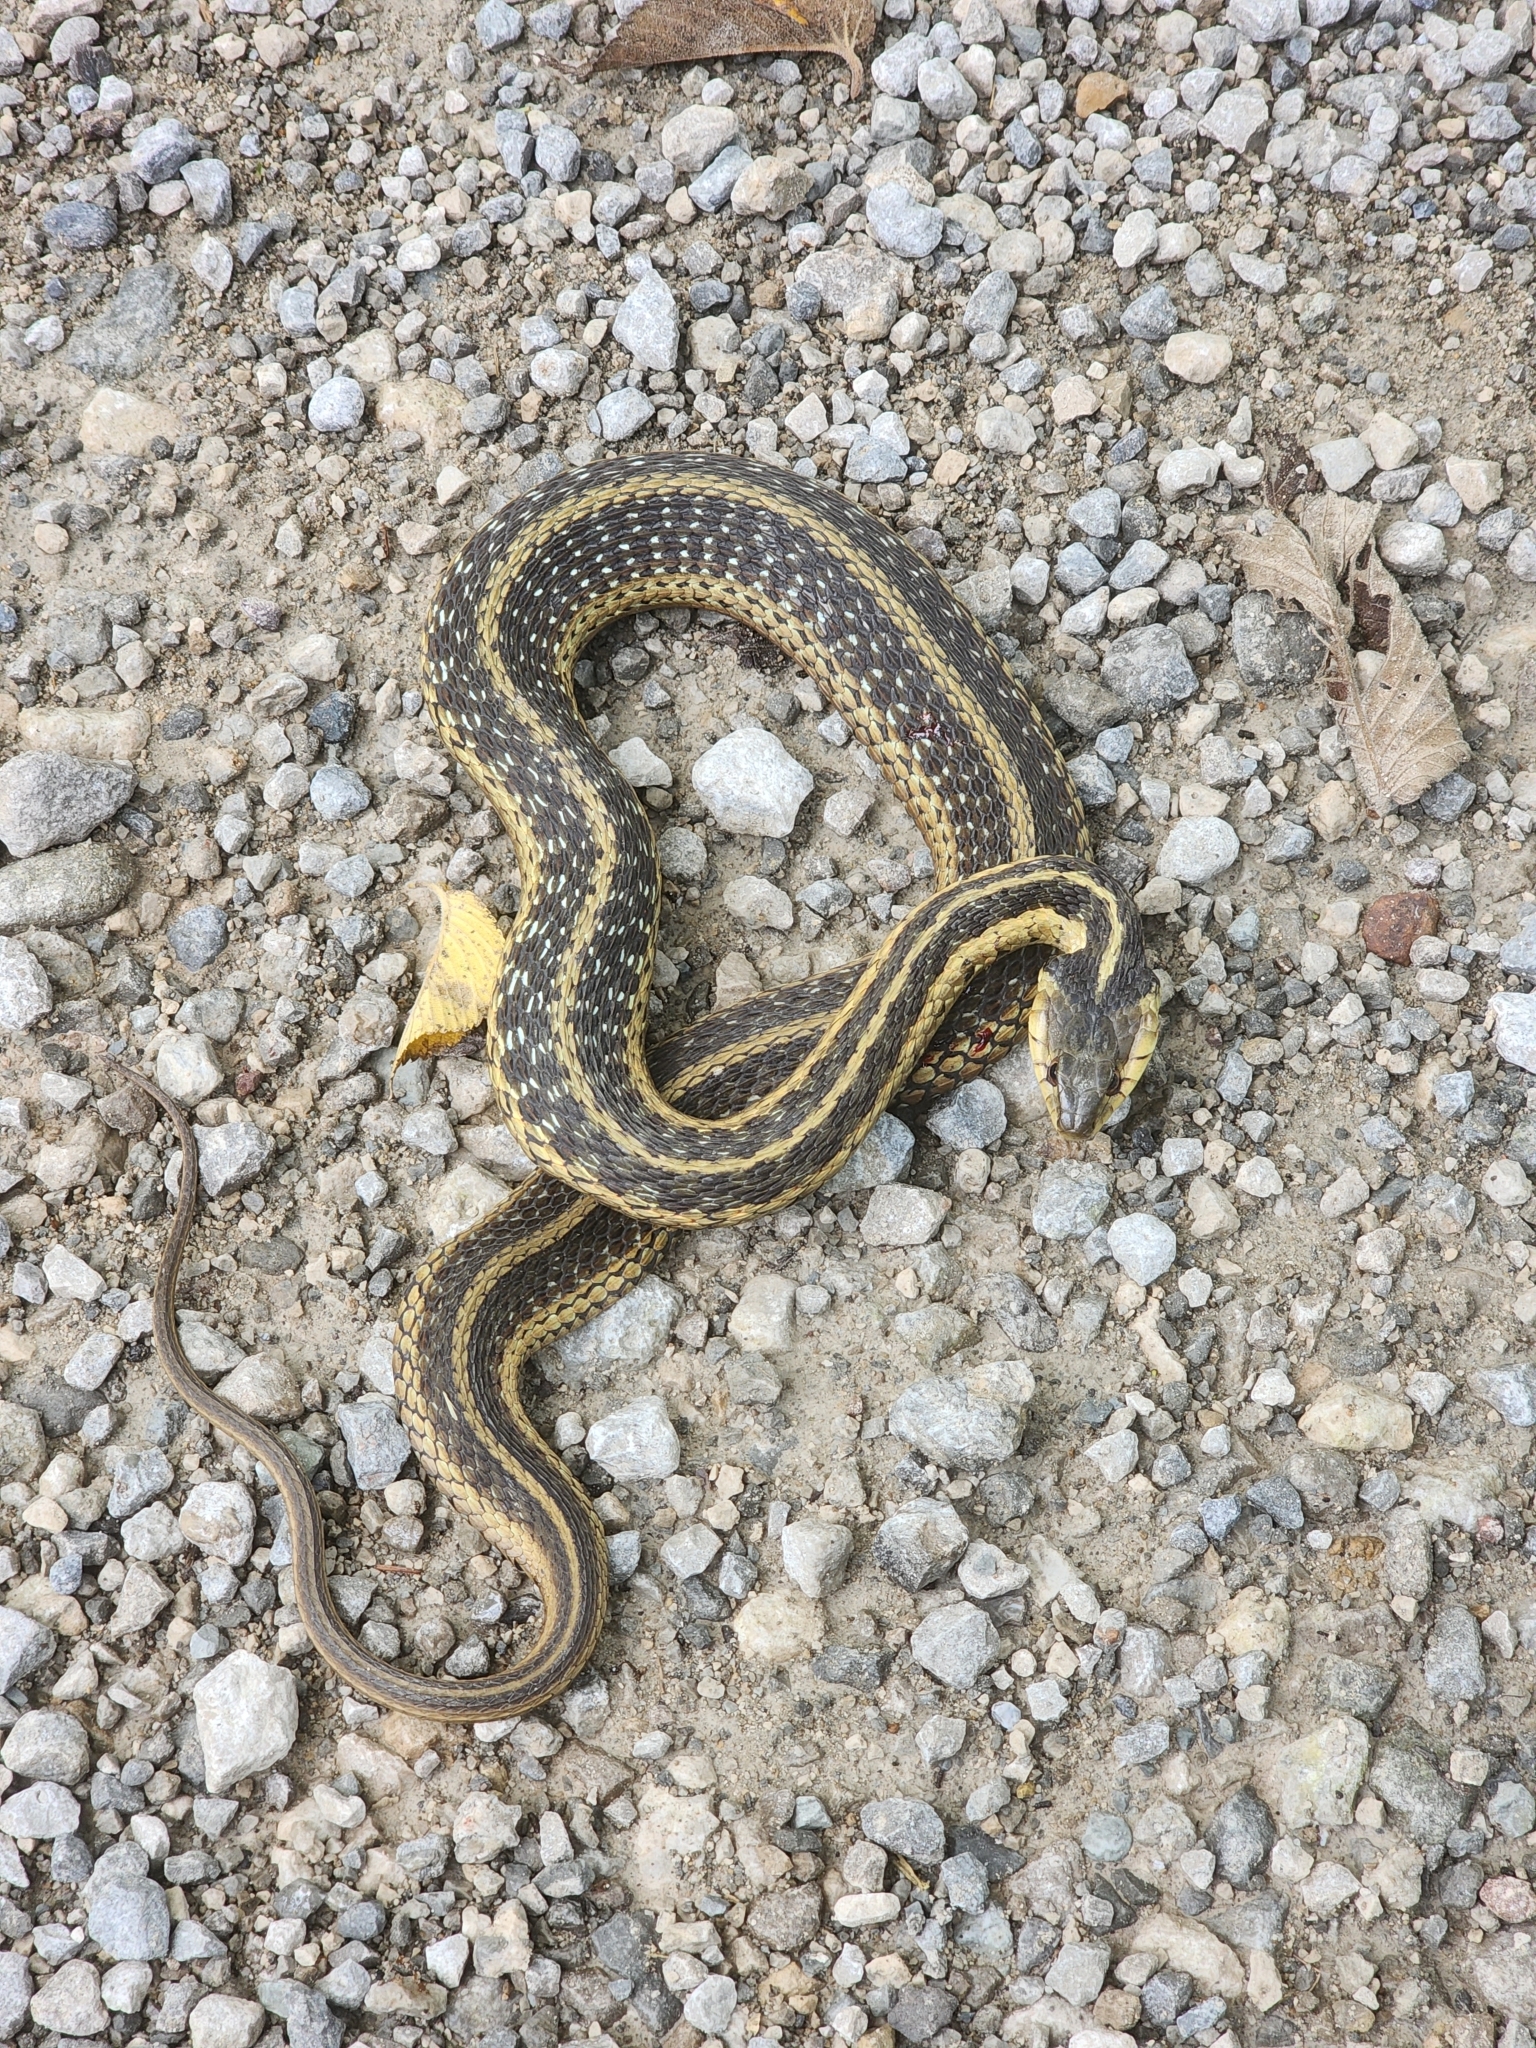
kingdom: Animalia
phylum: Chordata
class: Squamata
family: Colubridae
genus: Thamnophis
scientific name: Thamnophis sirtalis
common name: Common garter snake
